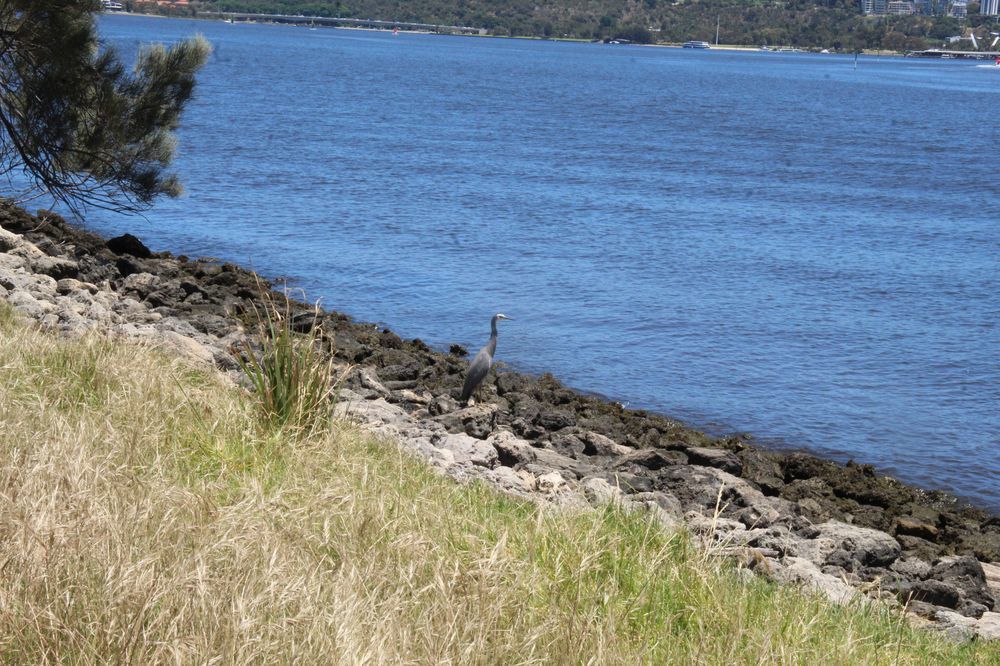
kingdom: Animalia
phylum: Chordata
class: Aves
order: Pelecaniformes
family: Ardeidae
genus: Egretta
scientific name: Egretta novaehollandiae
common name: White-faced heron
